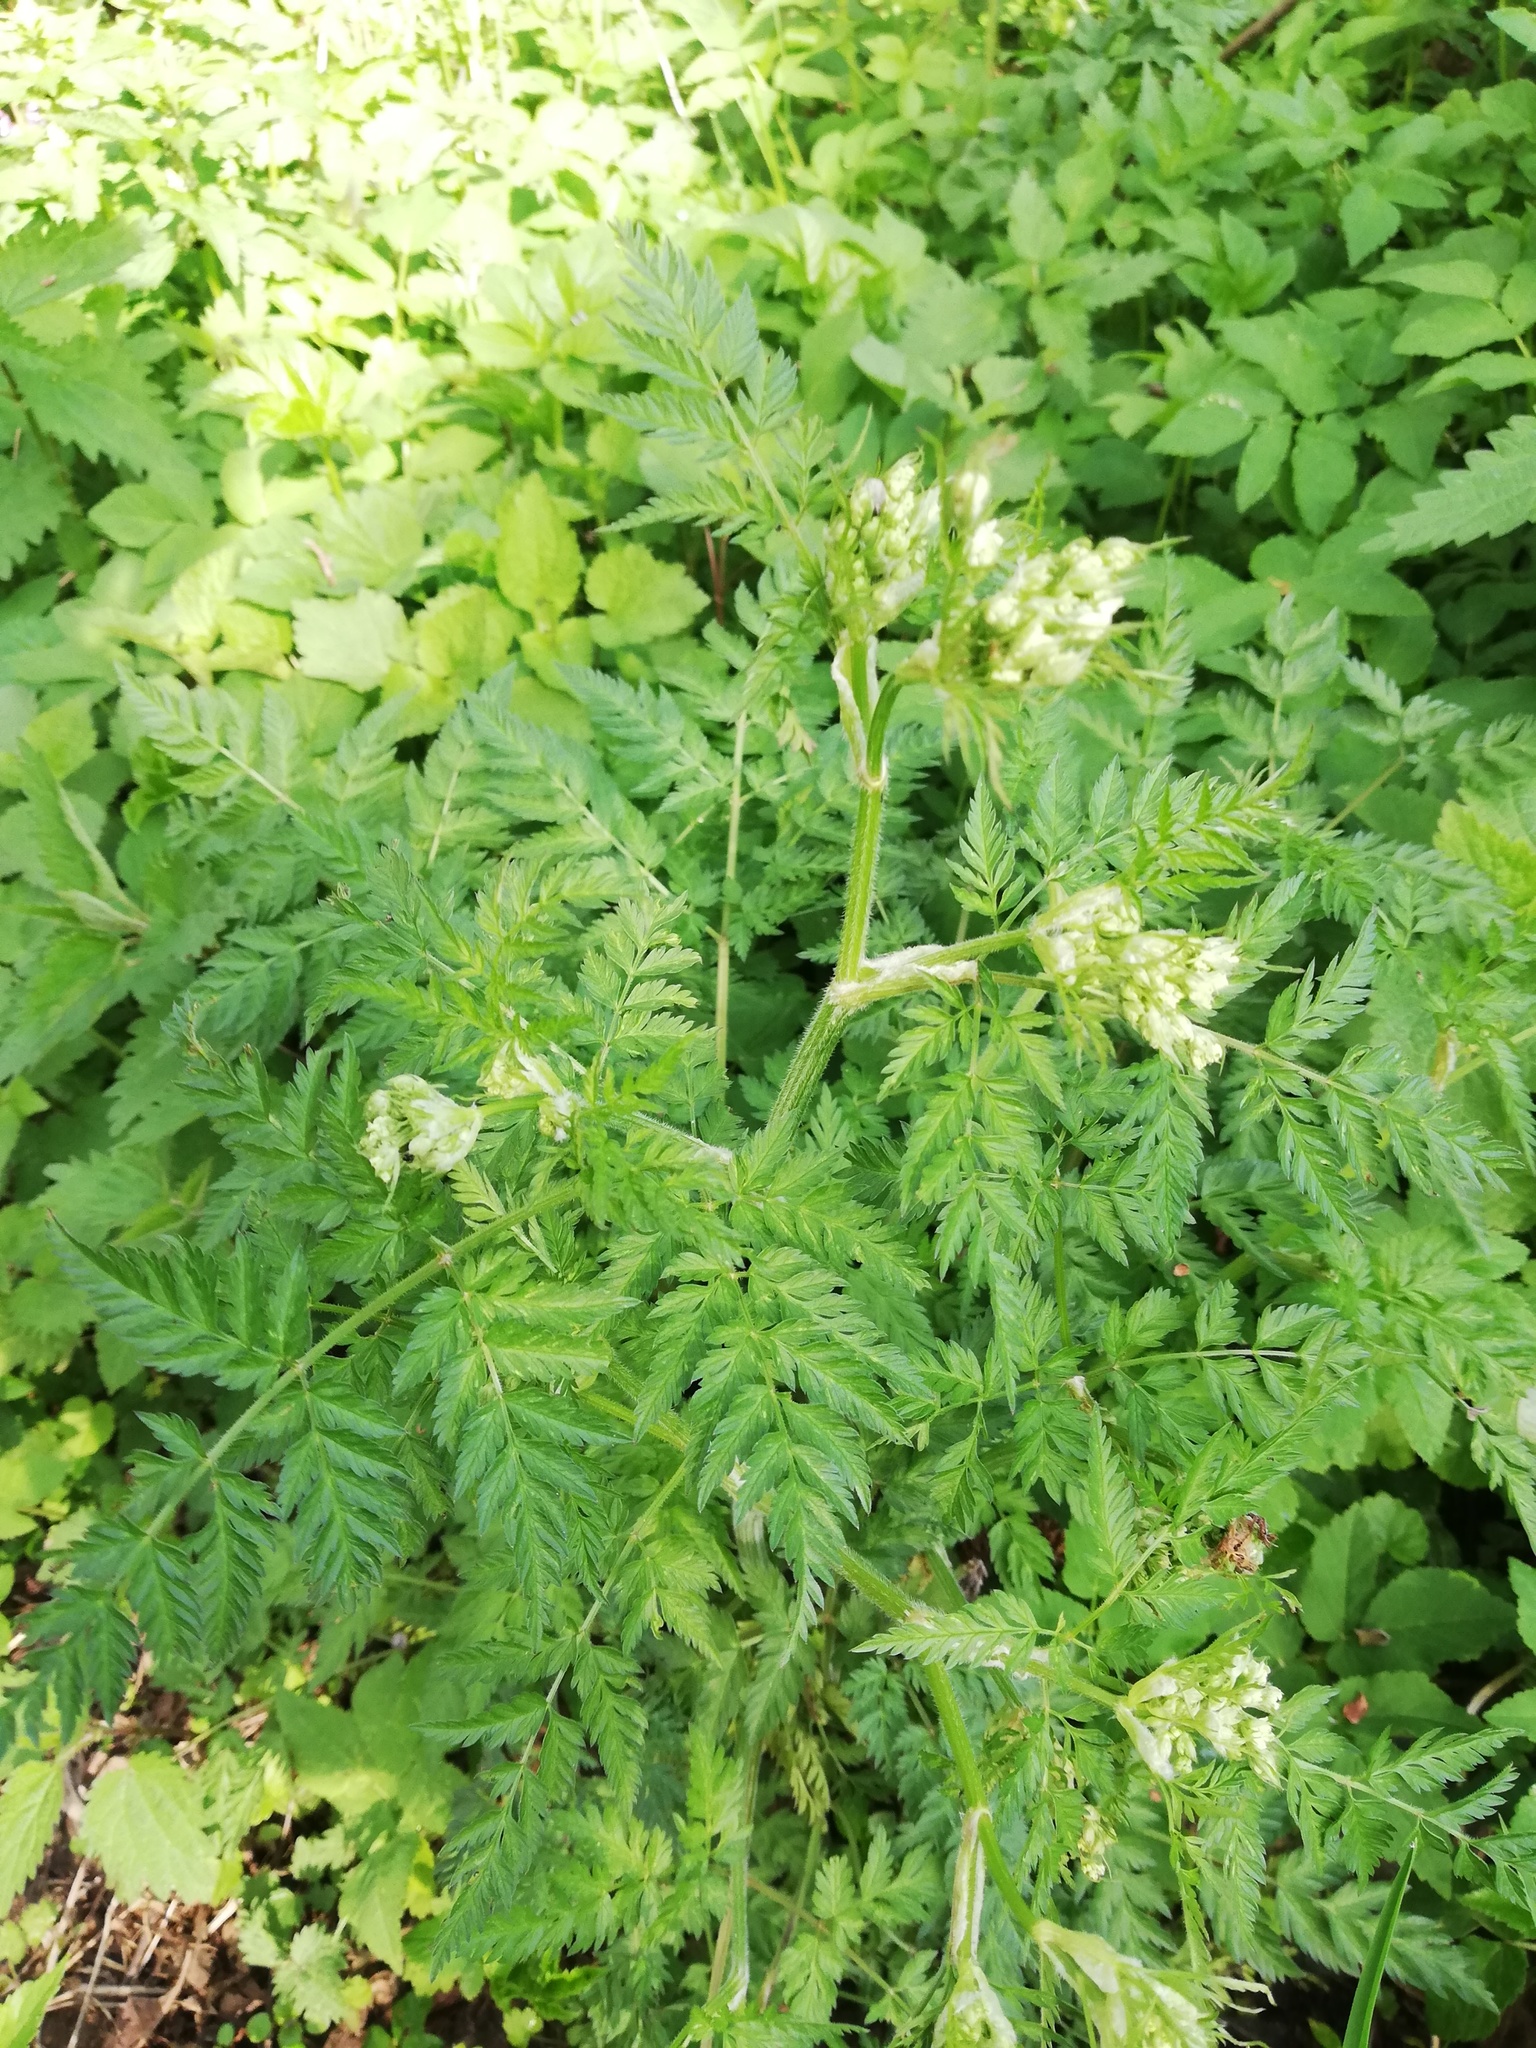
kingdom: Plantae
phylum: Tracheophyta
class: Magnoliopsida
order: Apiales
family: Apiaceae
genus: Anthriscus
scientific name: Anthriscus sylvestris
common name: Cow parsley
